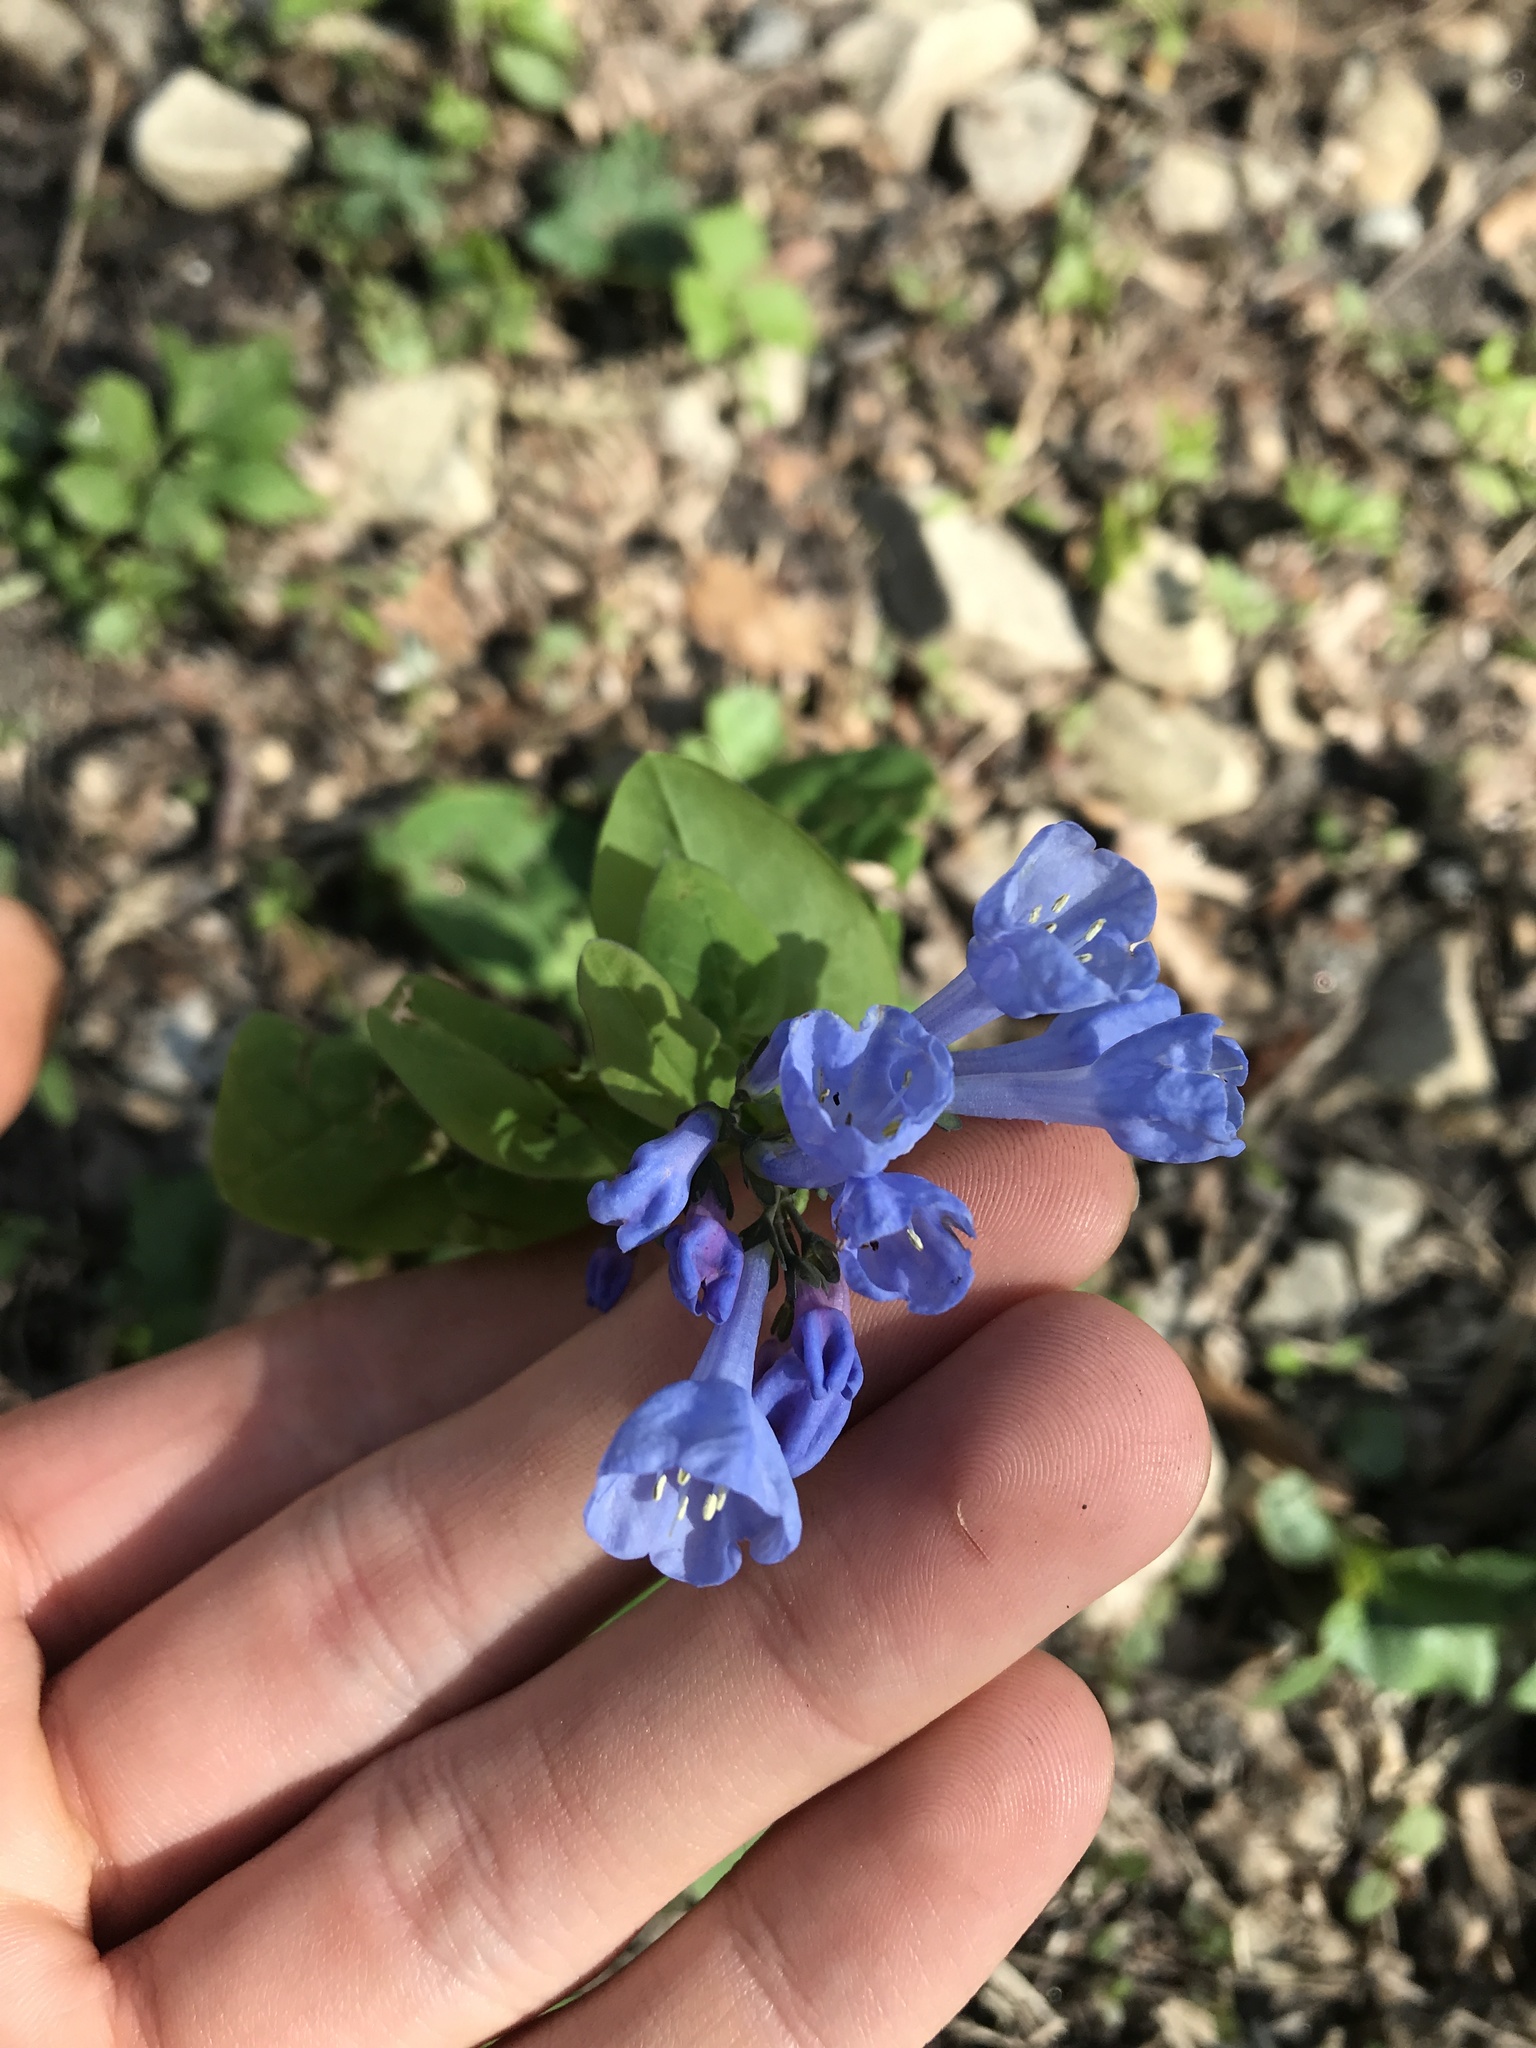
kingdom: Plantae
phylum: Tracheophyta
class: Magnoliopsida
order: Boraginales
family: Boraginaceae
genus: Mertensia
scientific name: Mertensia virginica
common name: Virginia bluebells
